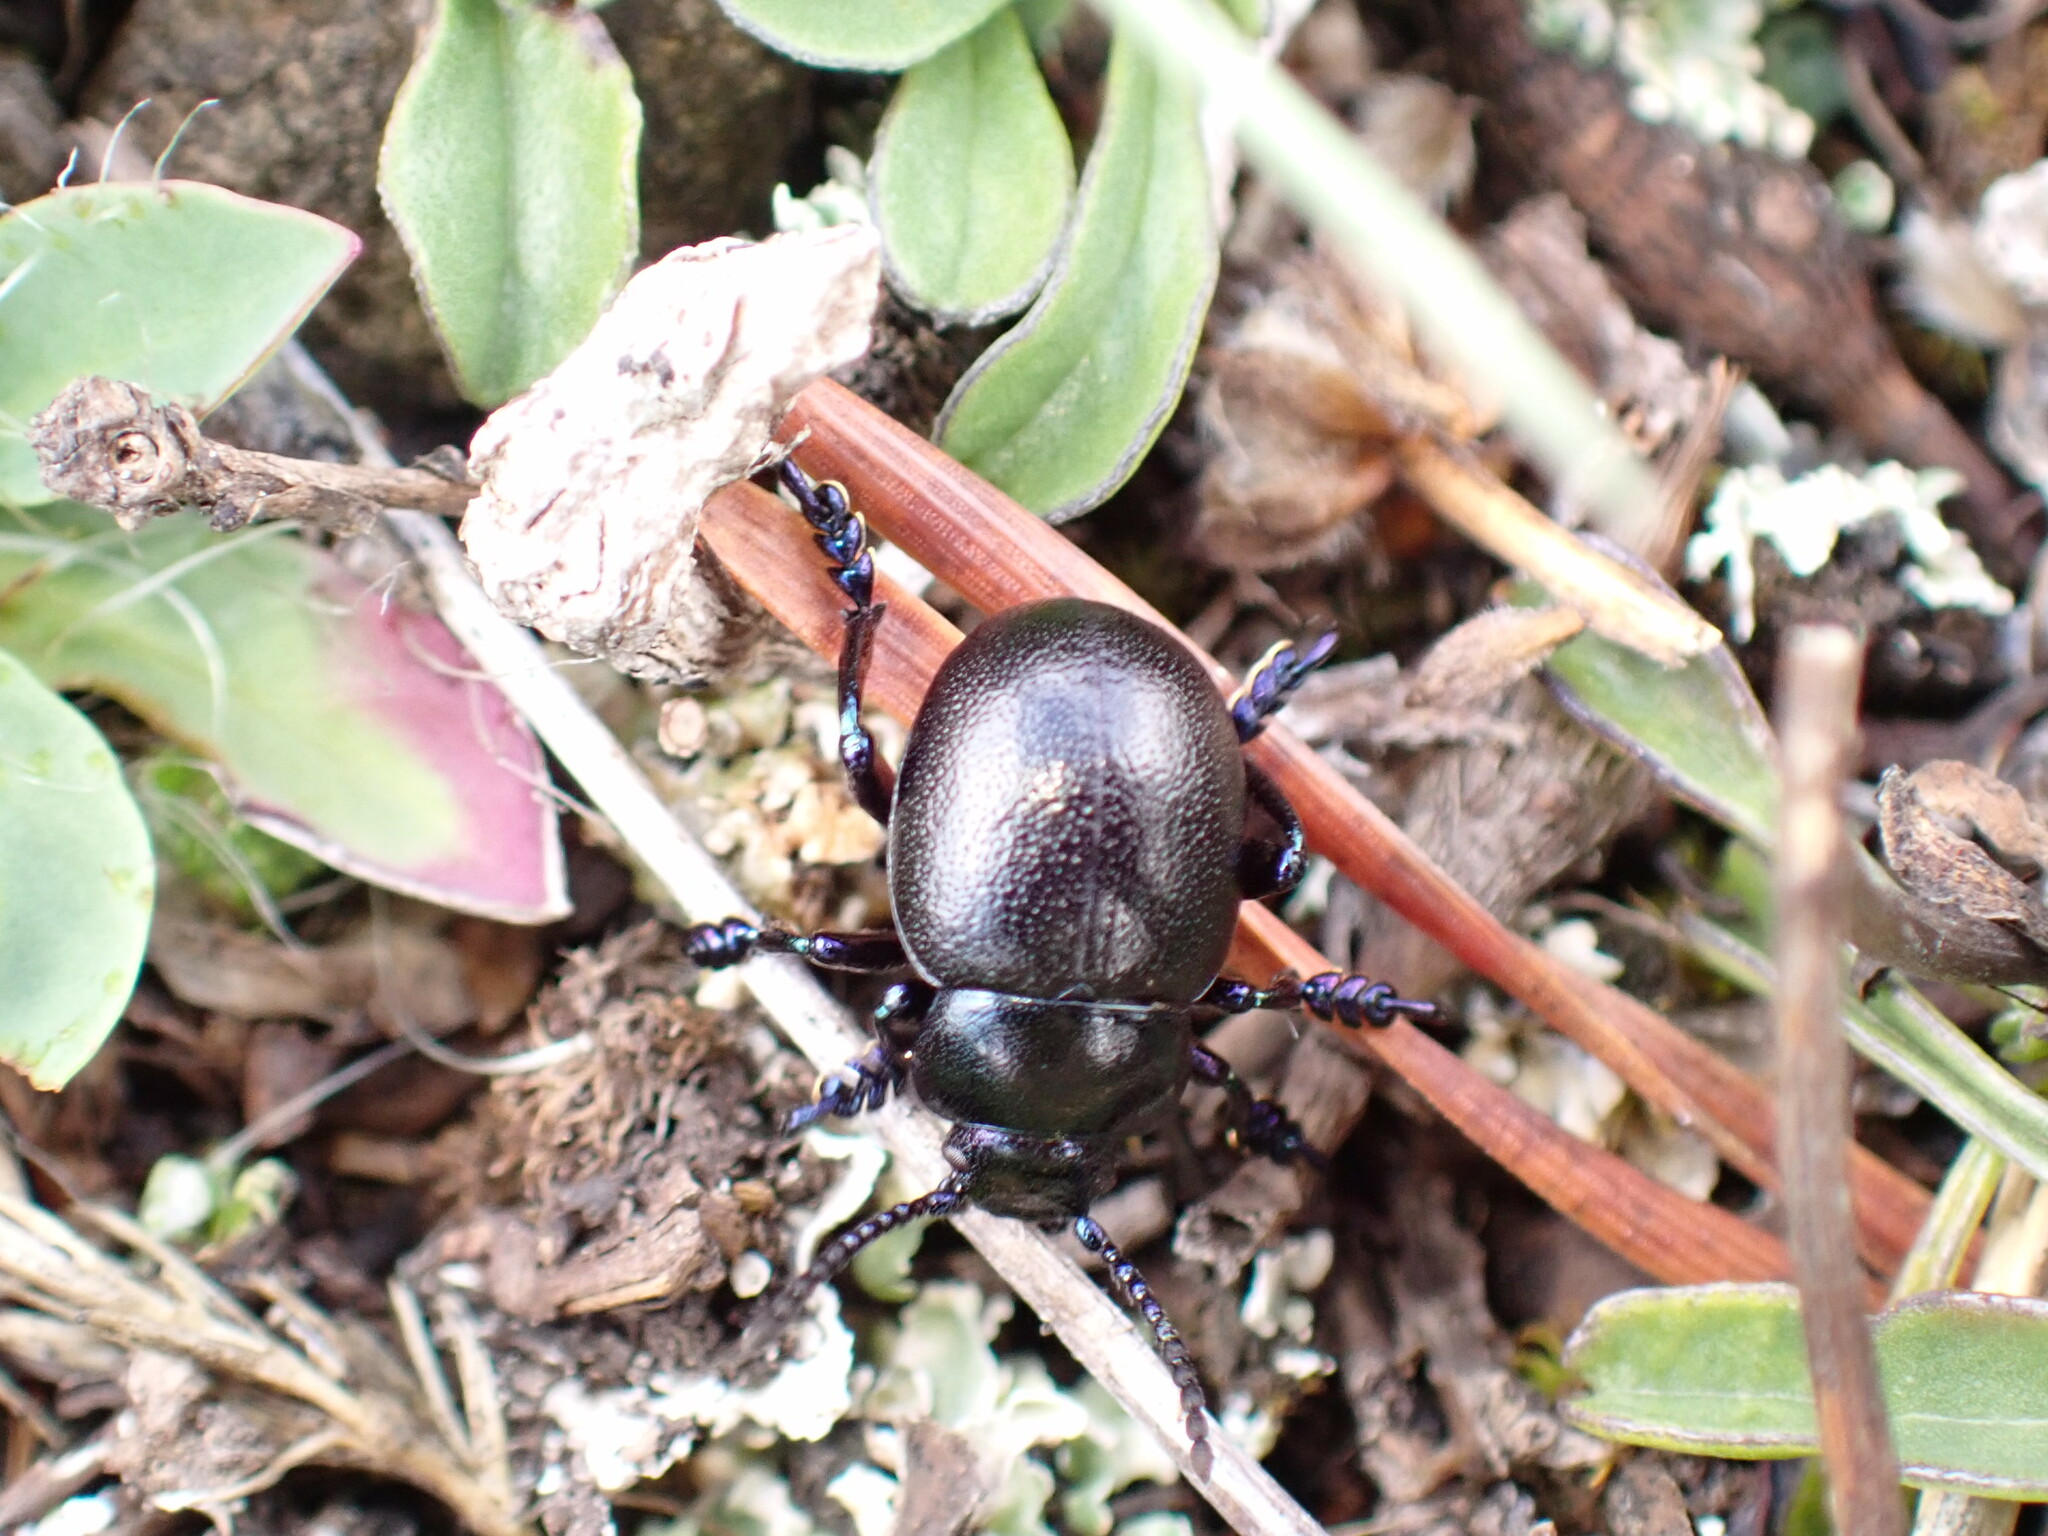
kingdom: Animalia
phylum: Arthropoda
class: Insecta
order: Coleoptera
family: Chrysomelidae
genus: Timarcha
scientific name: Timarcha goettingensis
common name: Small bloody-nosed beetle
